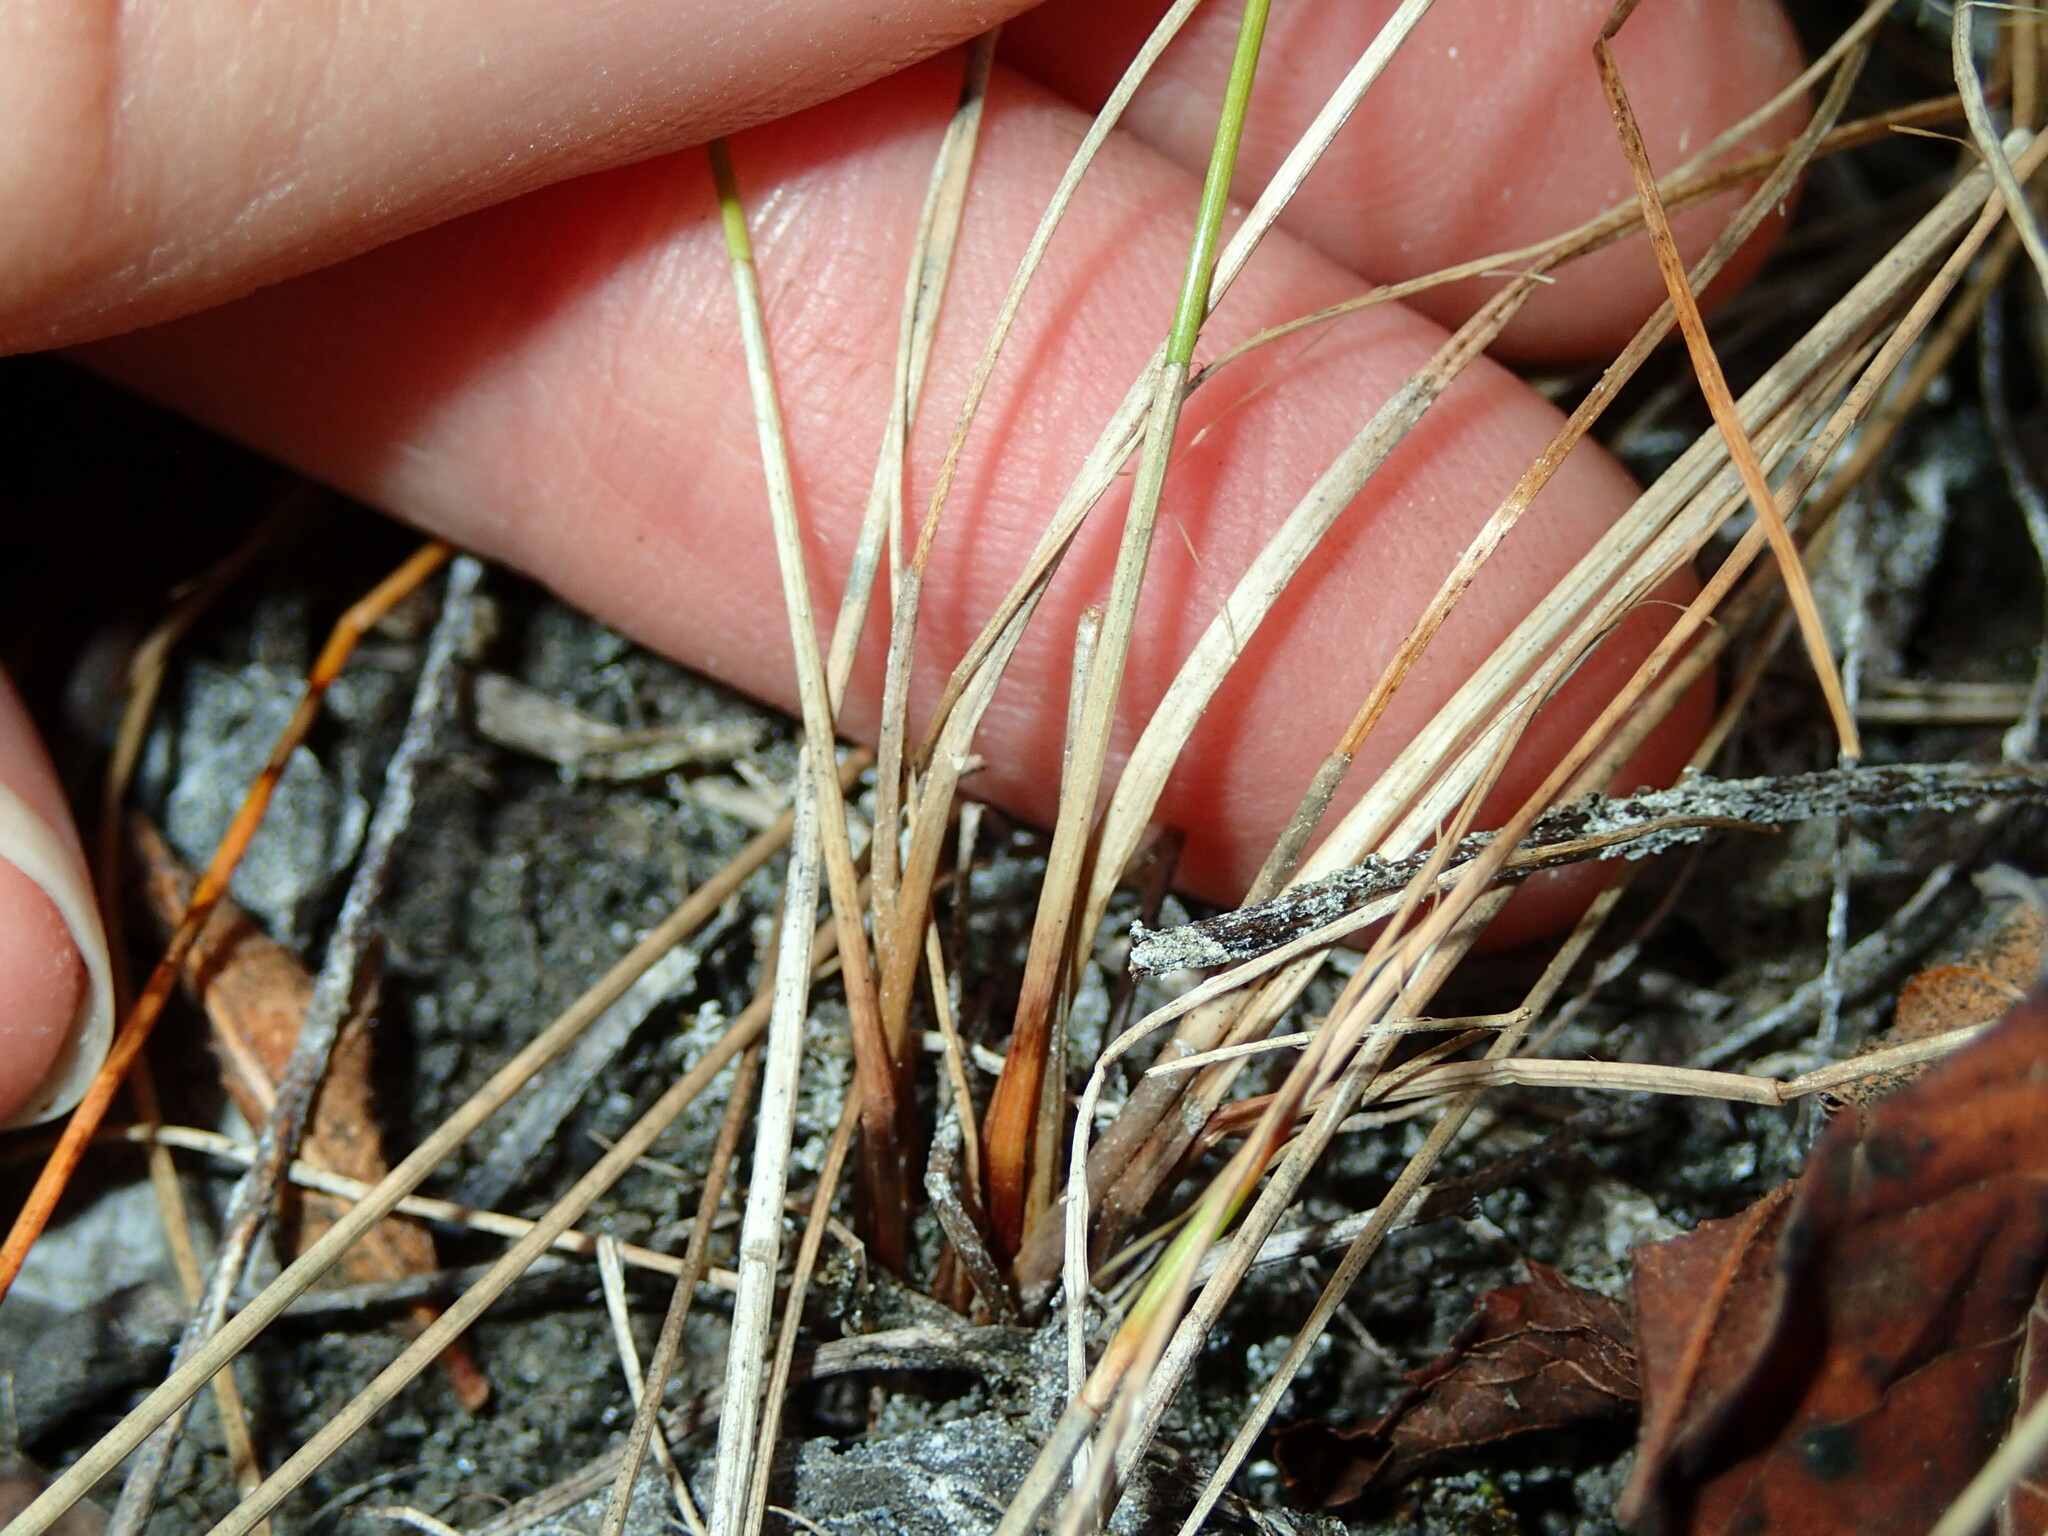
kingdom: Plantae
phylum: Tracheophyta
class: Liliopsida
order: Poales
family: Cyperaceae
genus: Eleocharis
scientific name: Eleocharis erythropoda
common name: Bald spikerush
